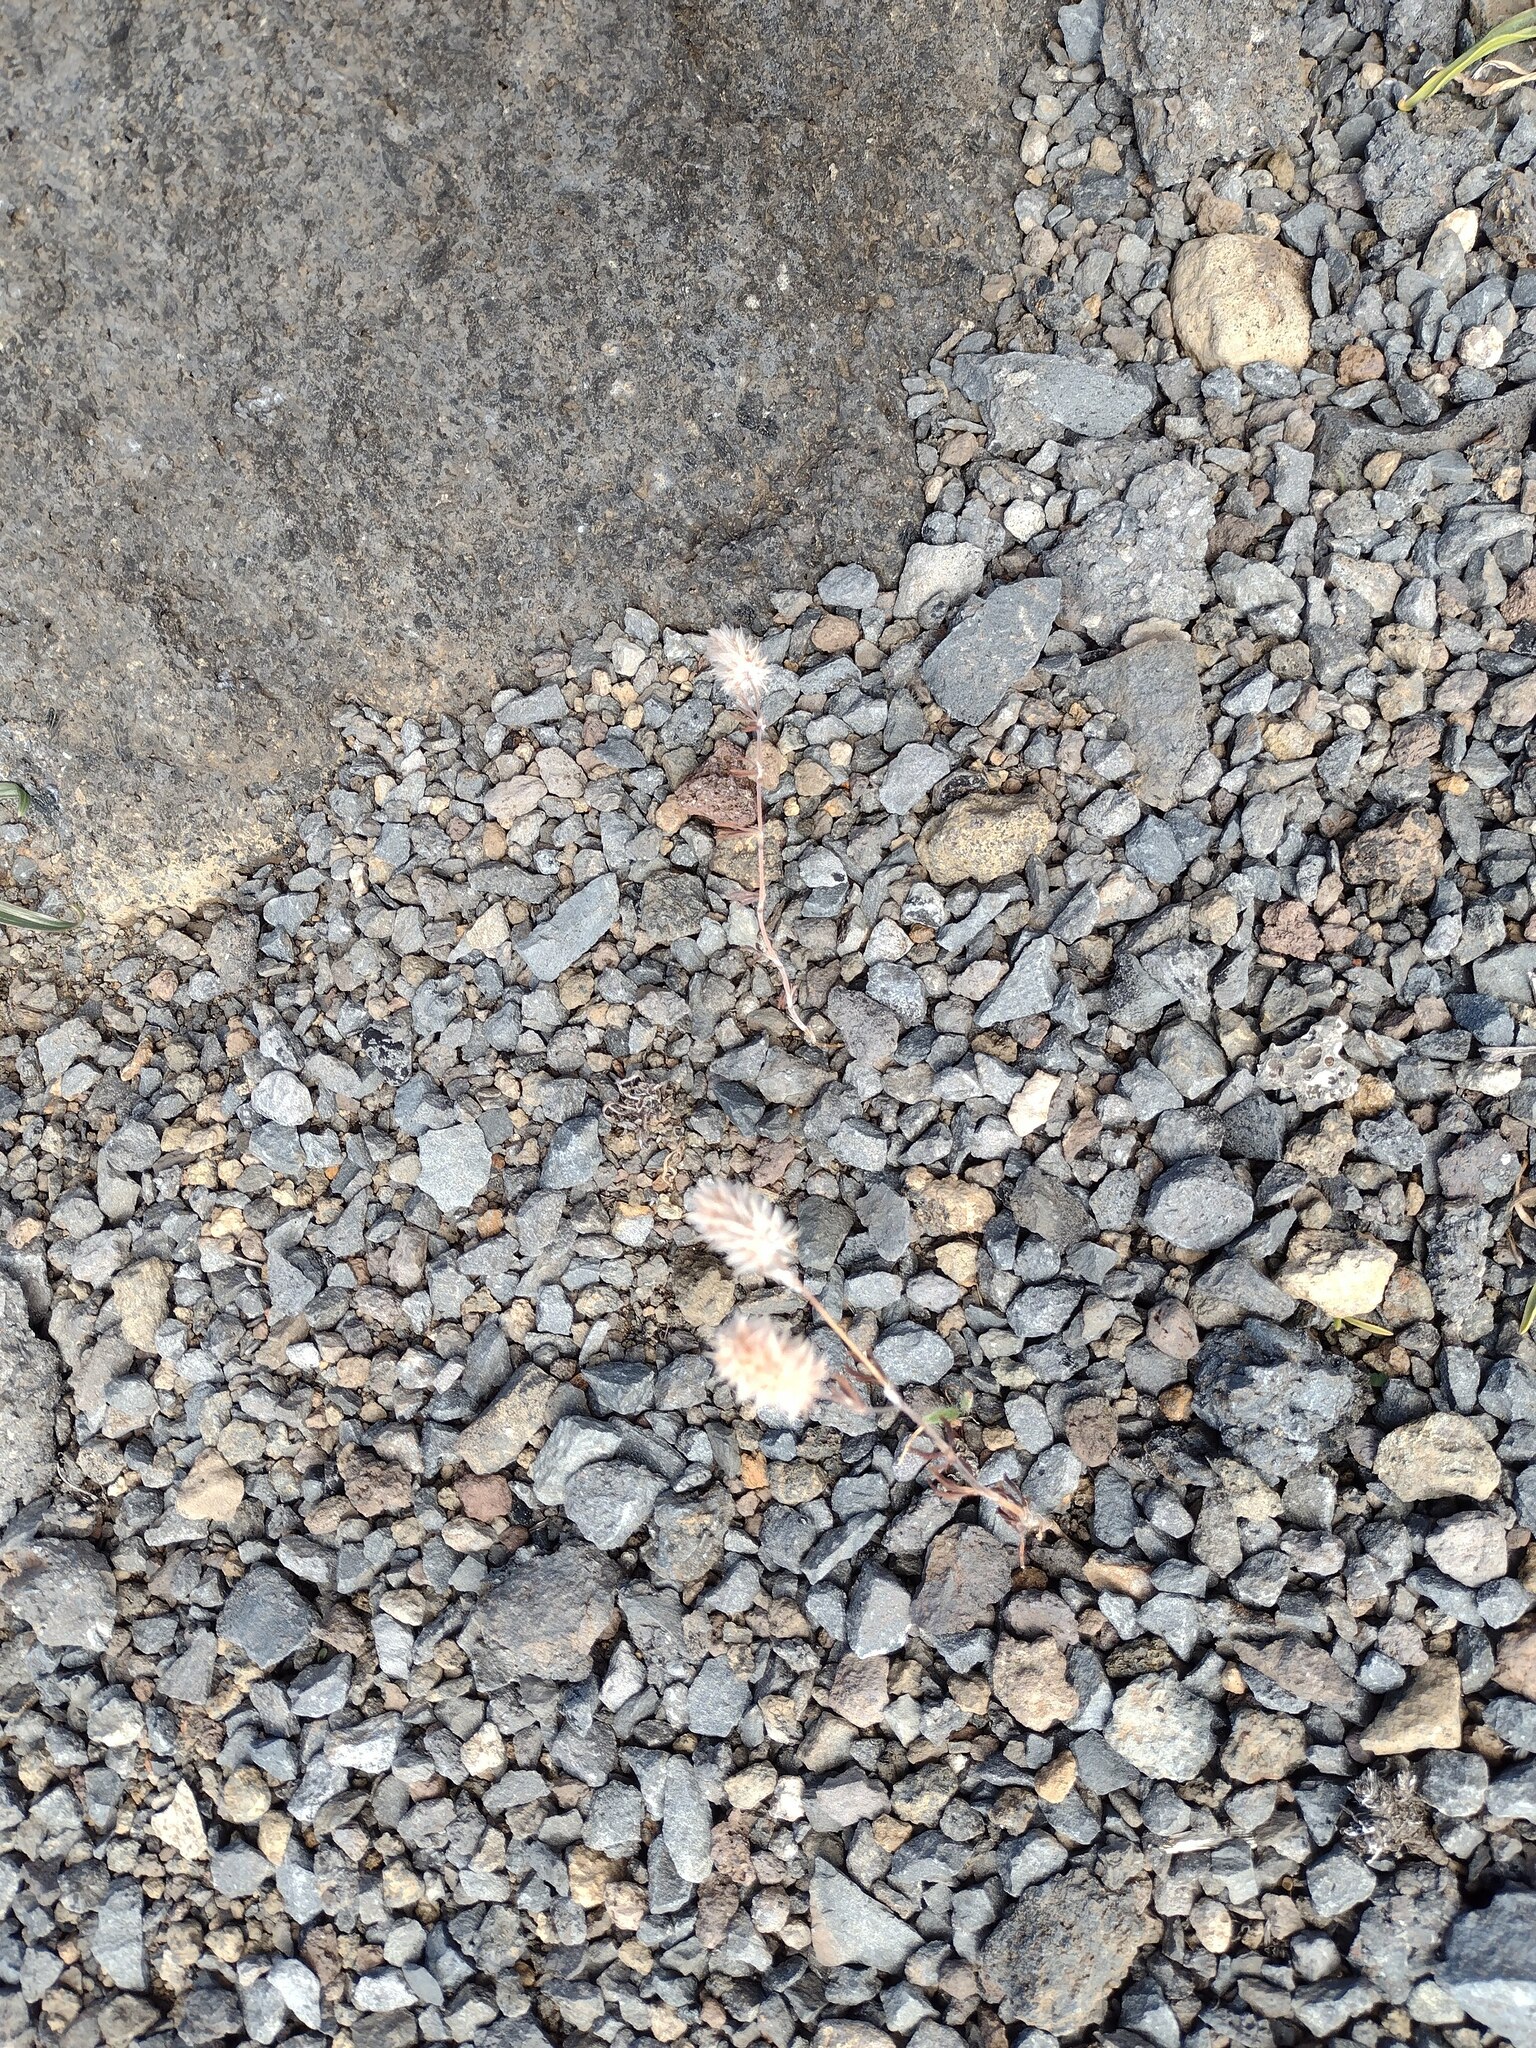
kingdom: Plantae
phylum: Tracheophyta
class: Magnoliopsida
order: Fabales
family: Fabaceae
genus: Trifolium
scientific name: Trifolium arvense
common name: Hare's-foot clover
